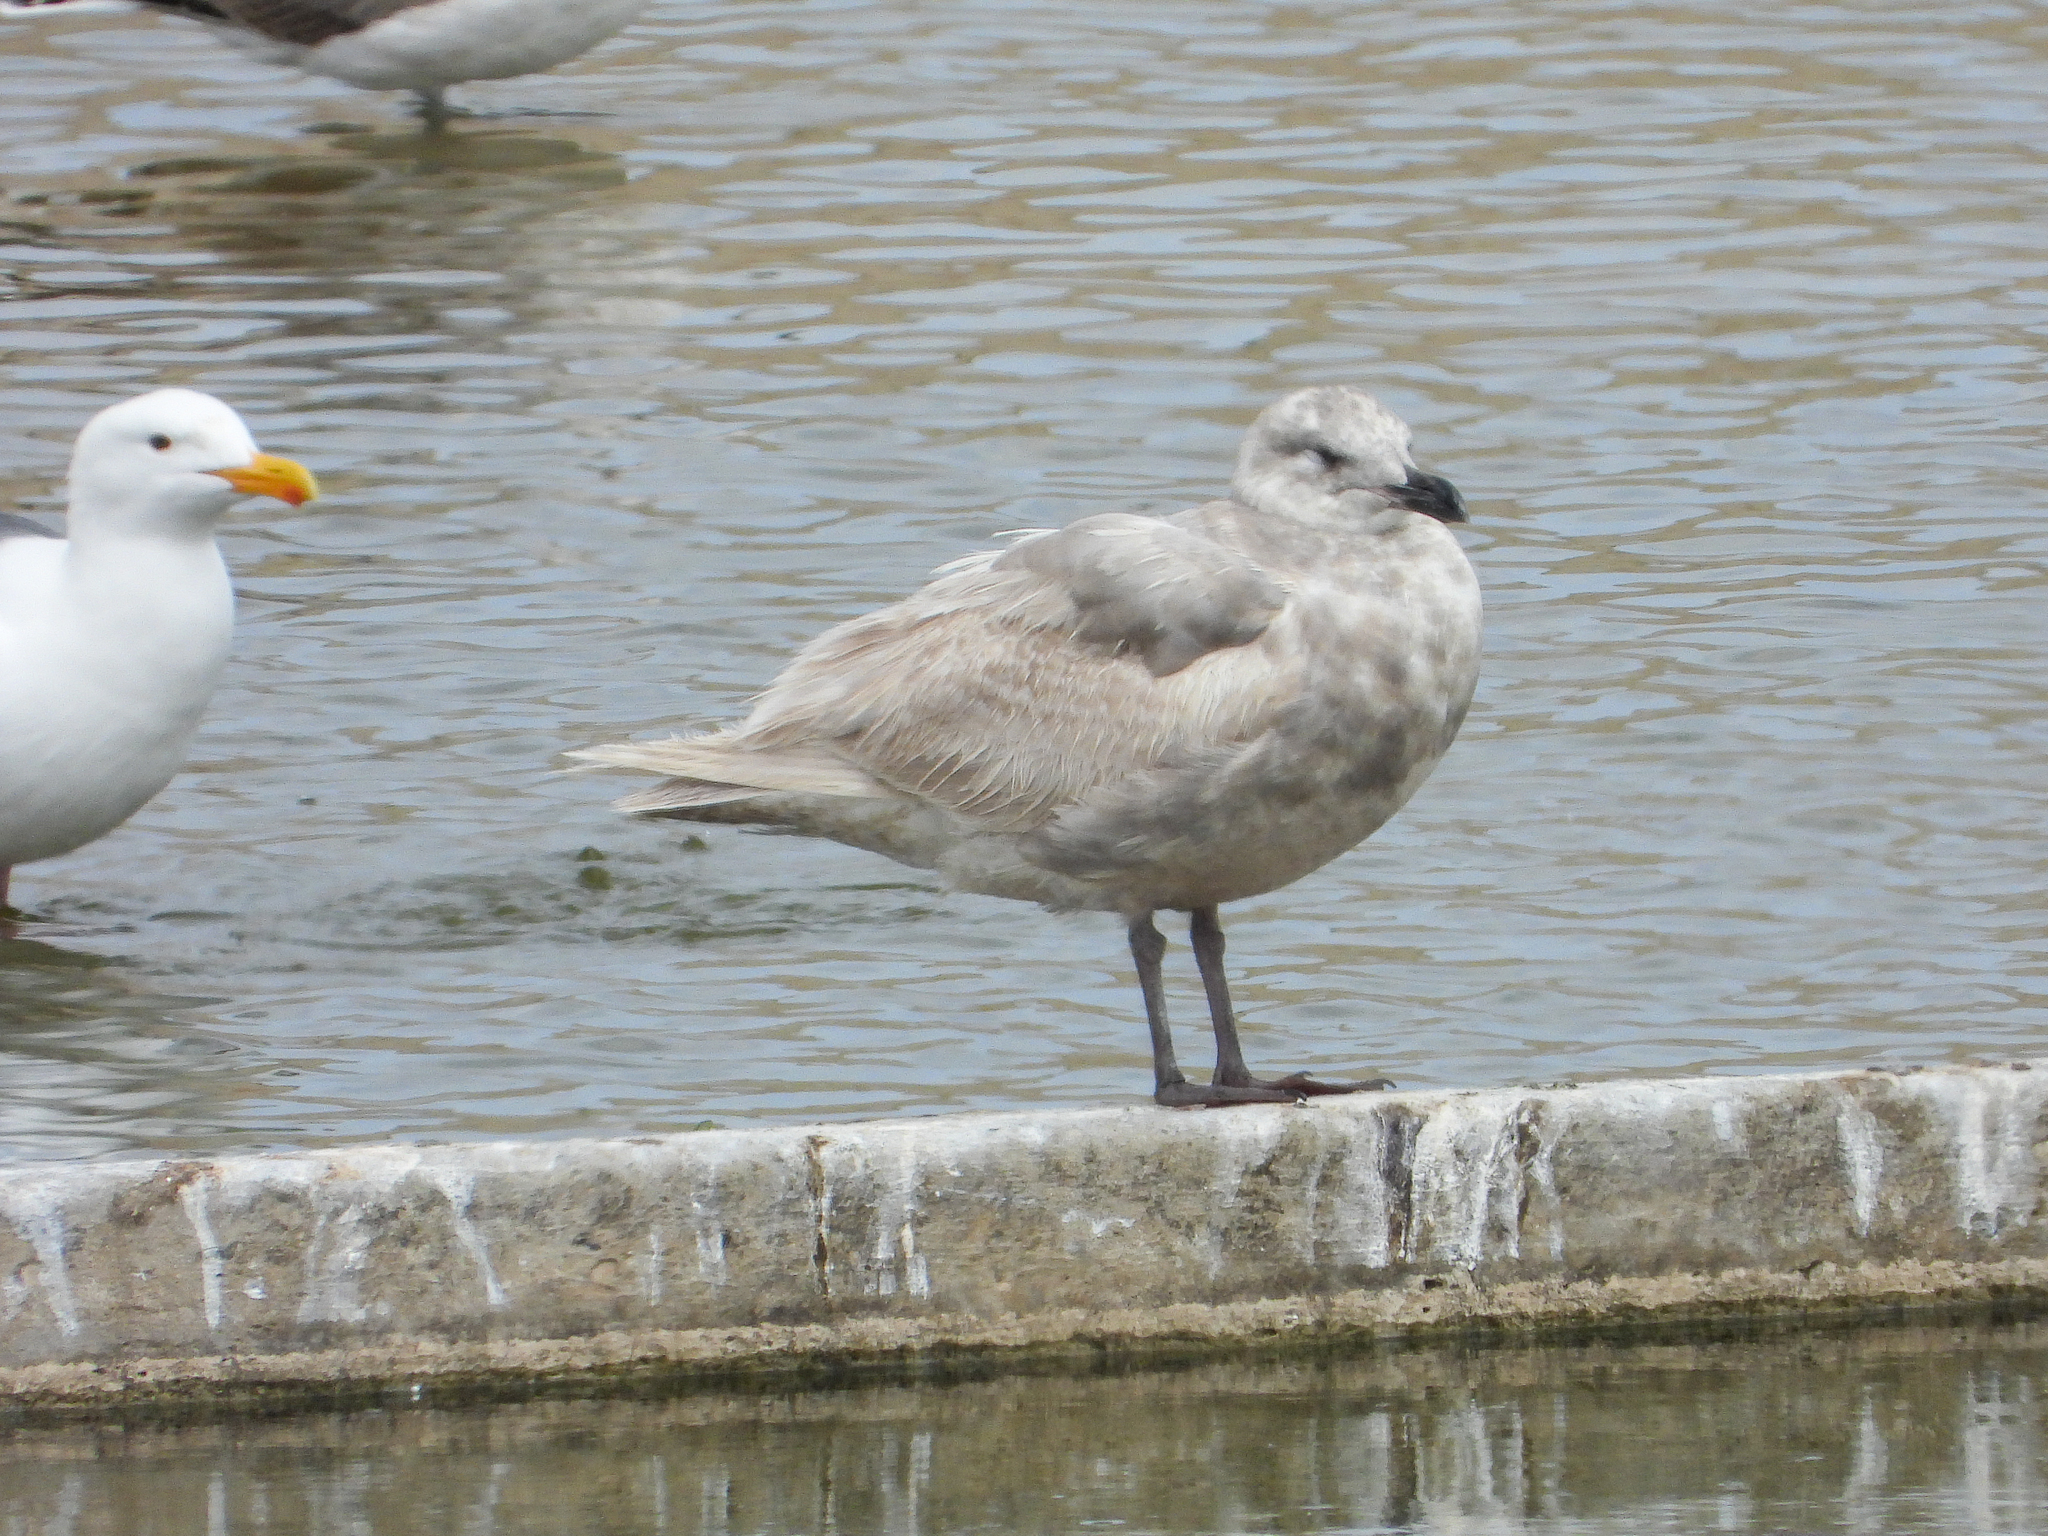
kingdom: Animalia
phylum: Chordata
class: Aves
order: Charadriiformes
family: Laridae
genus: Larus
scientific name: Larus glaucescens
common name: Glaucous-winged gull
